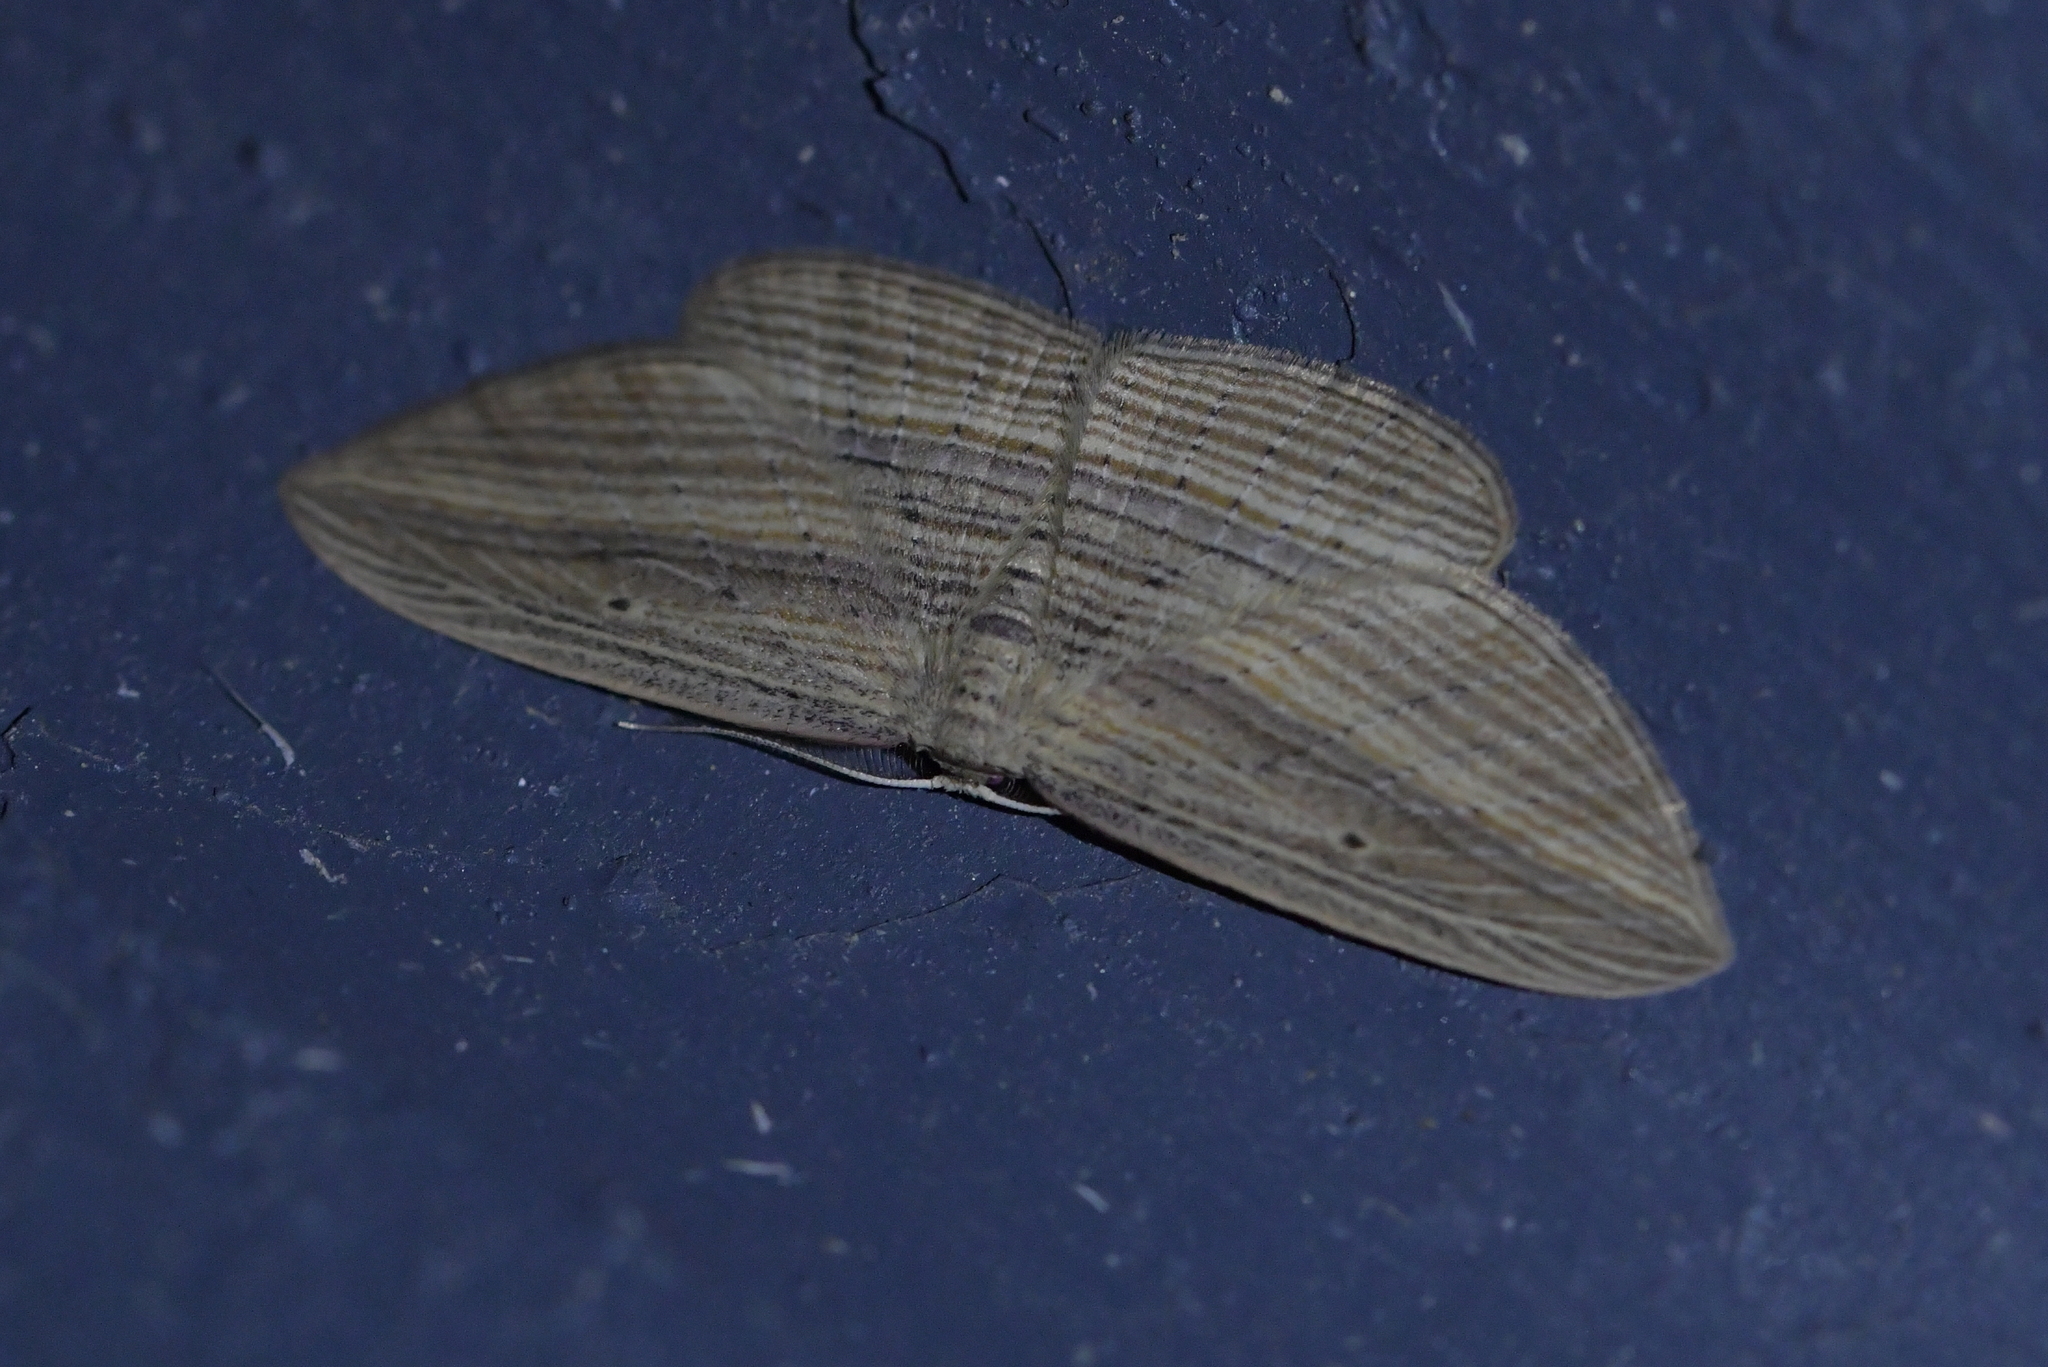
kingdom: Animalia
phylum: Arthropoda
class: Insecta
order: Lepidoptera
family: Geometridae
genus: Epiphryne
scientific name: Epiphryne verriculata
